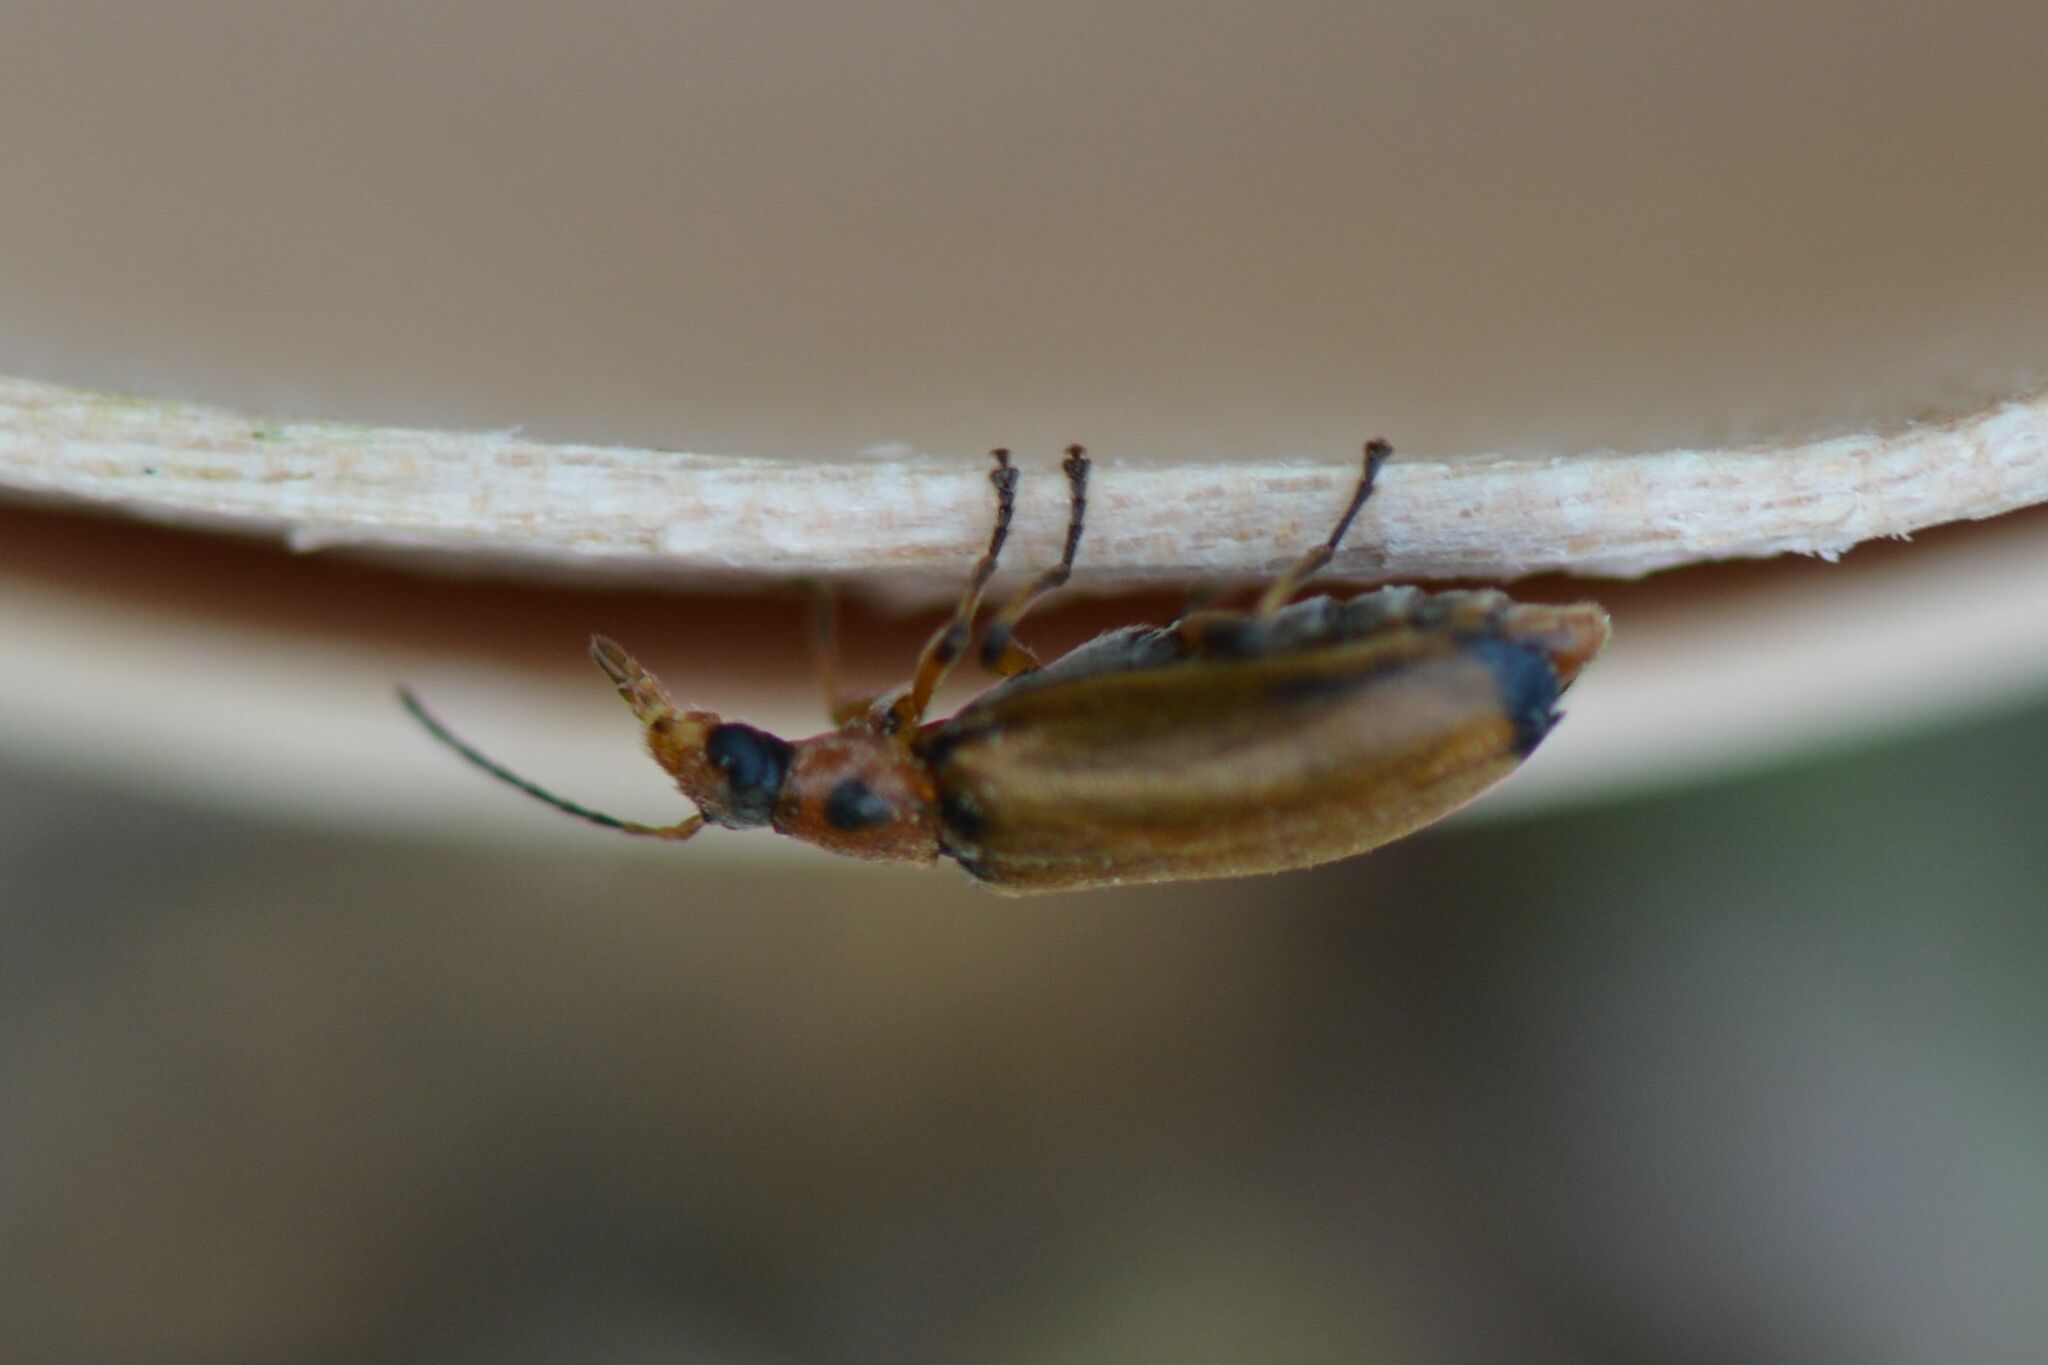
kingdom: Animalia
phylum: Arthropoda
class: Insecta
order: Coleoptera
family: Melandryidae
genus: Osphya
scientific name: Osphya bipunctata
